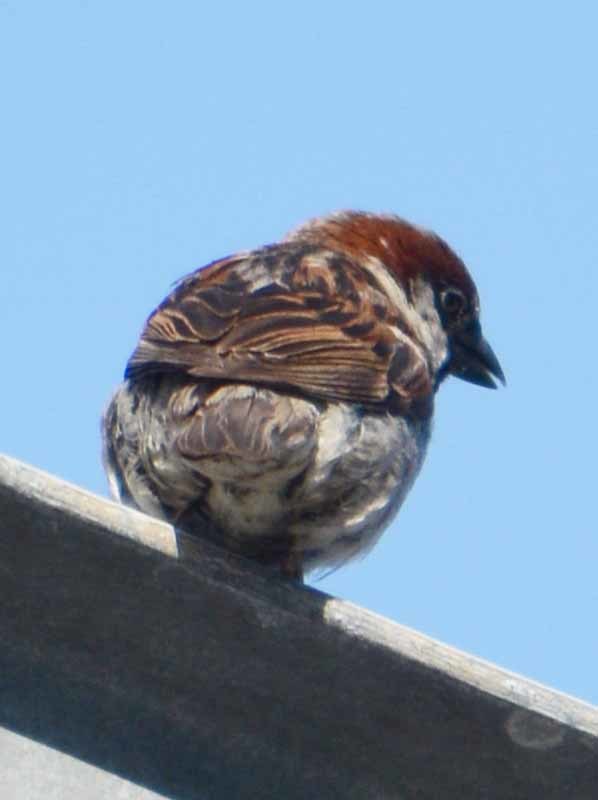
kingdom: Animalia
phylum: Chordata
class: Aves
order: Passeriformes
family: Passeridae
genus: Passer
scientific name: Passer domesticus
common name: House sparrow
